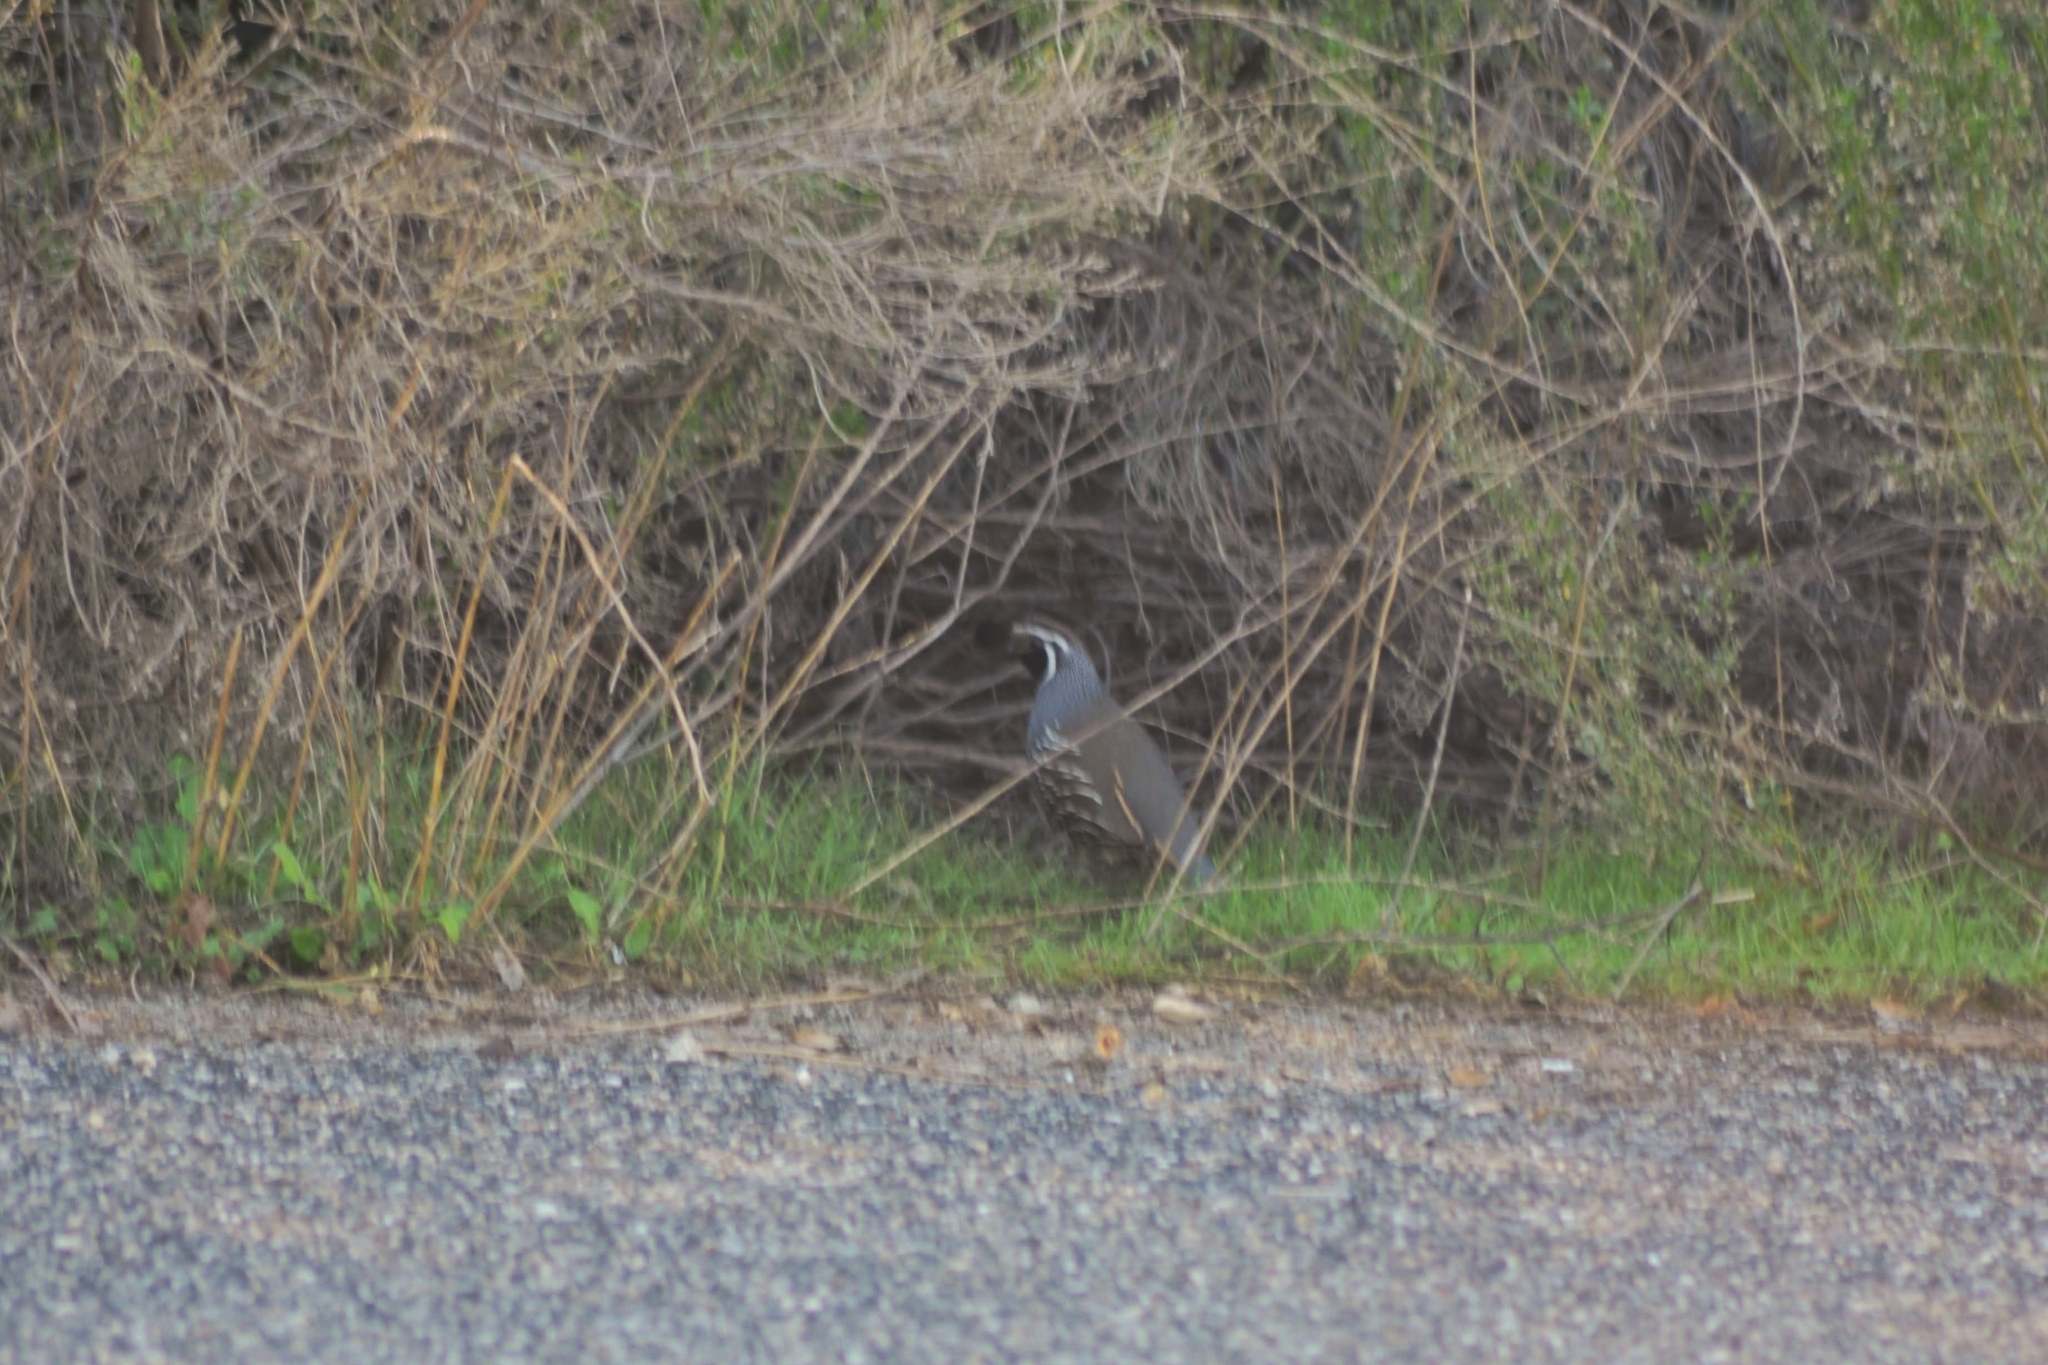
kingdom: Animalia
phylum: Chordata
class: Aves
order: Galliformes
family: Odontophoridae
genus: Callipepla
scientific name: Callipepla californica
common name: California quail
